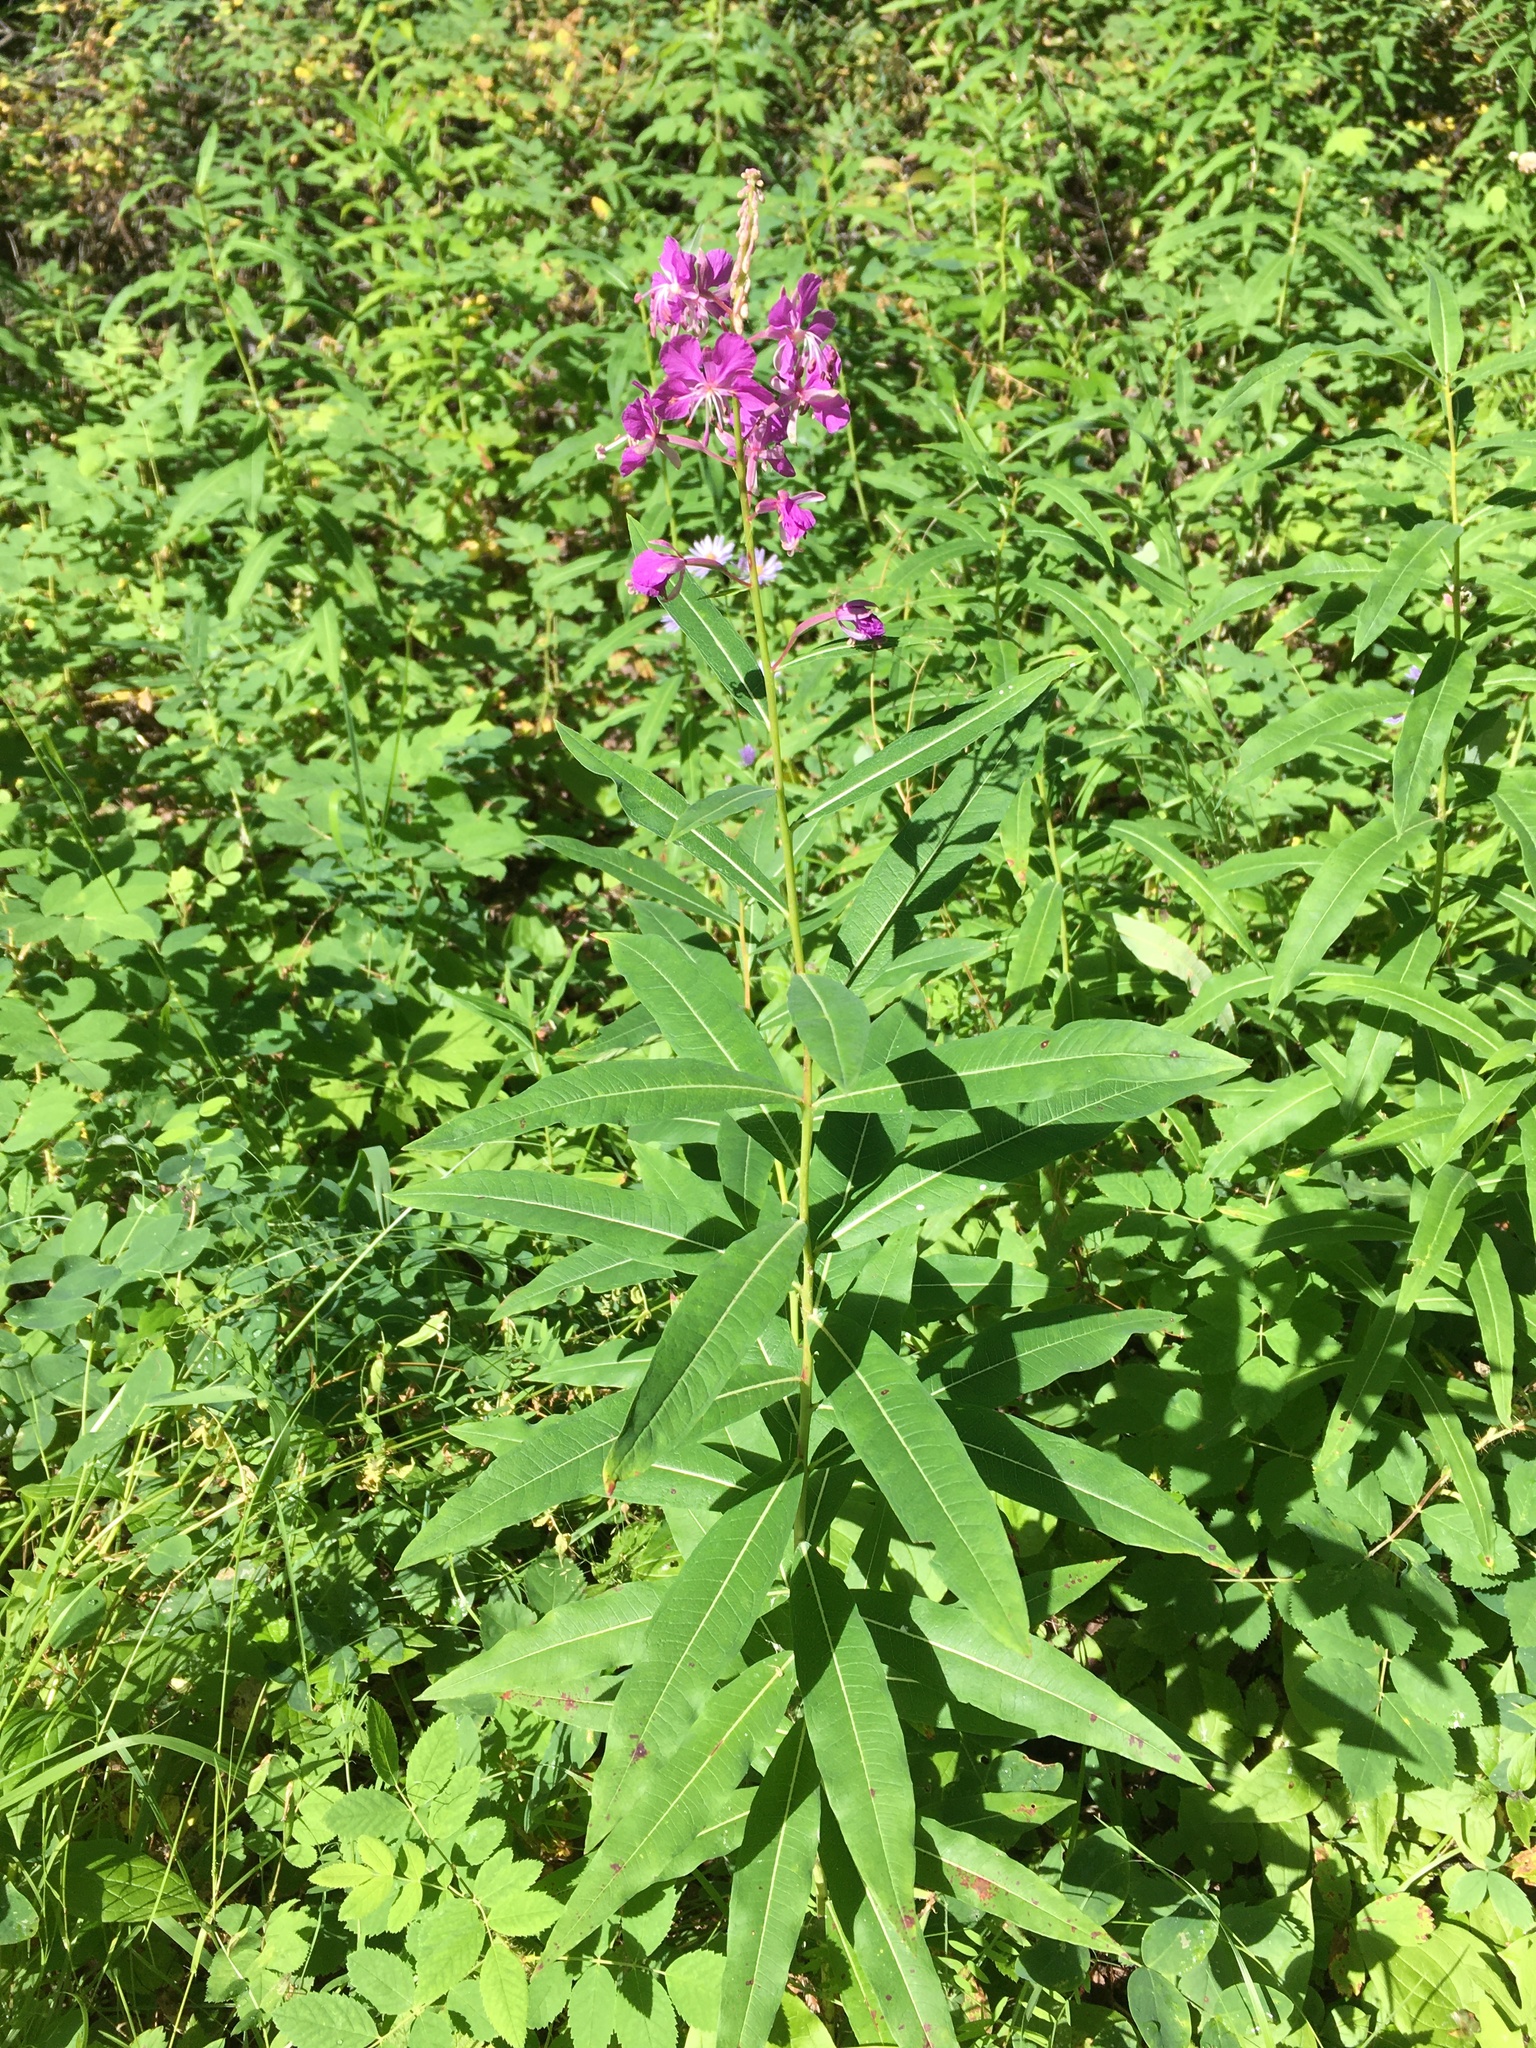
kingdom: Plantae
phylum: Tracheophyta
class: Magnoliopsida
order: Myrtales
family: Onagraceae
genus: Chamaenerion
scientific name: Chamaenerion angustifolium
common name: Fireweed
